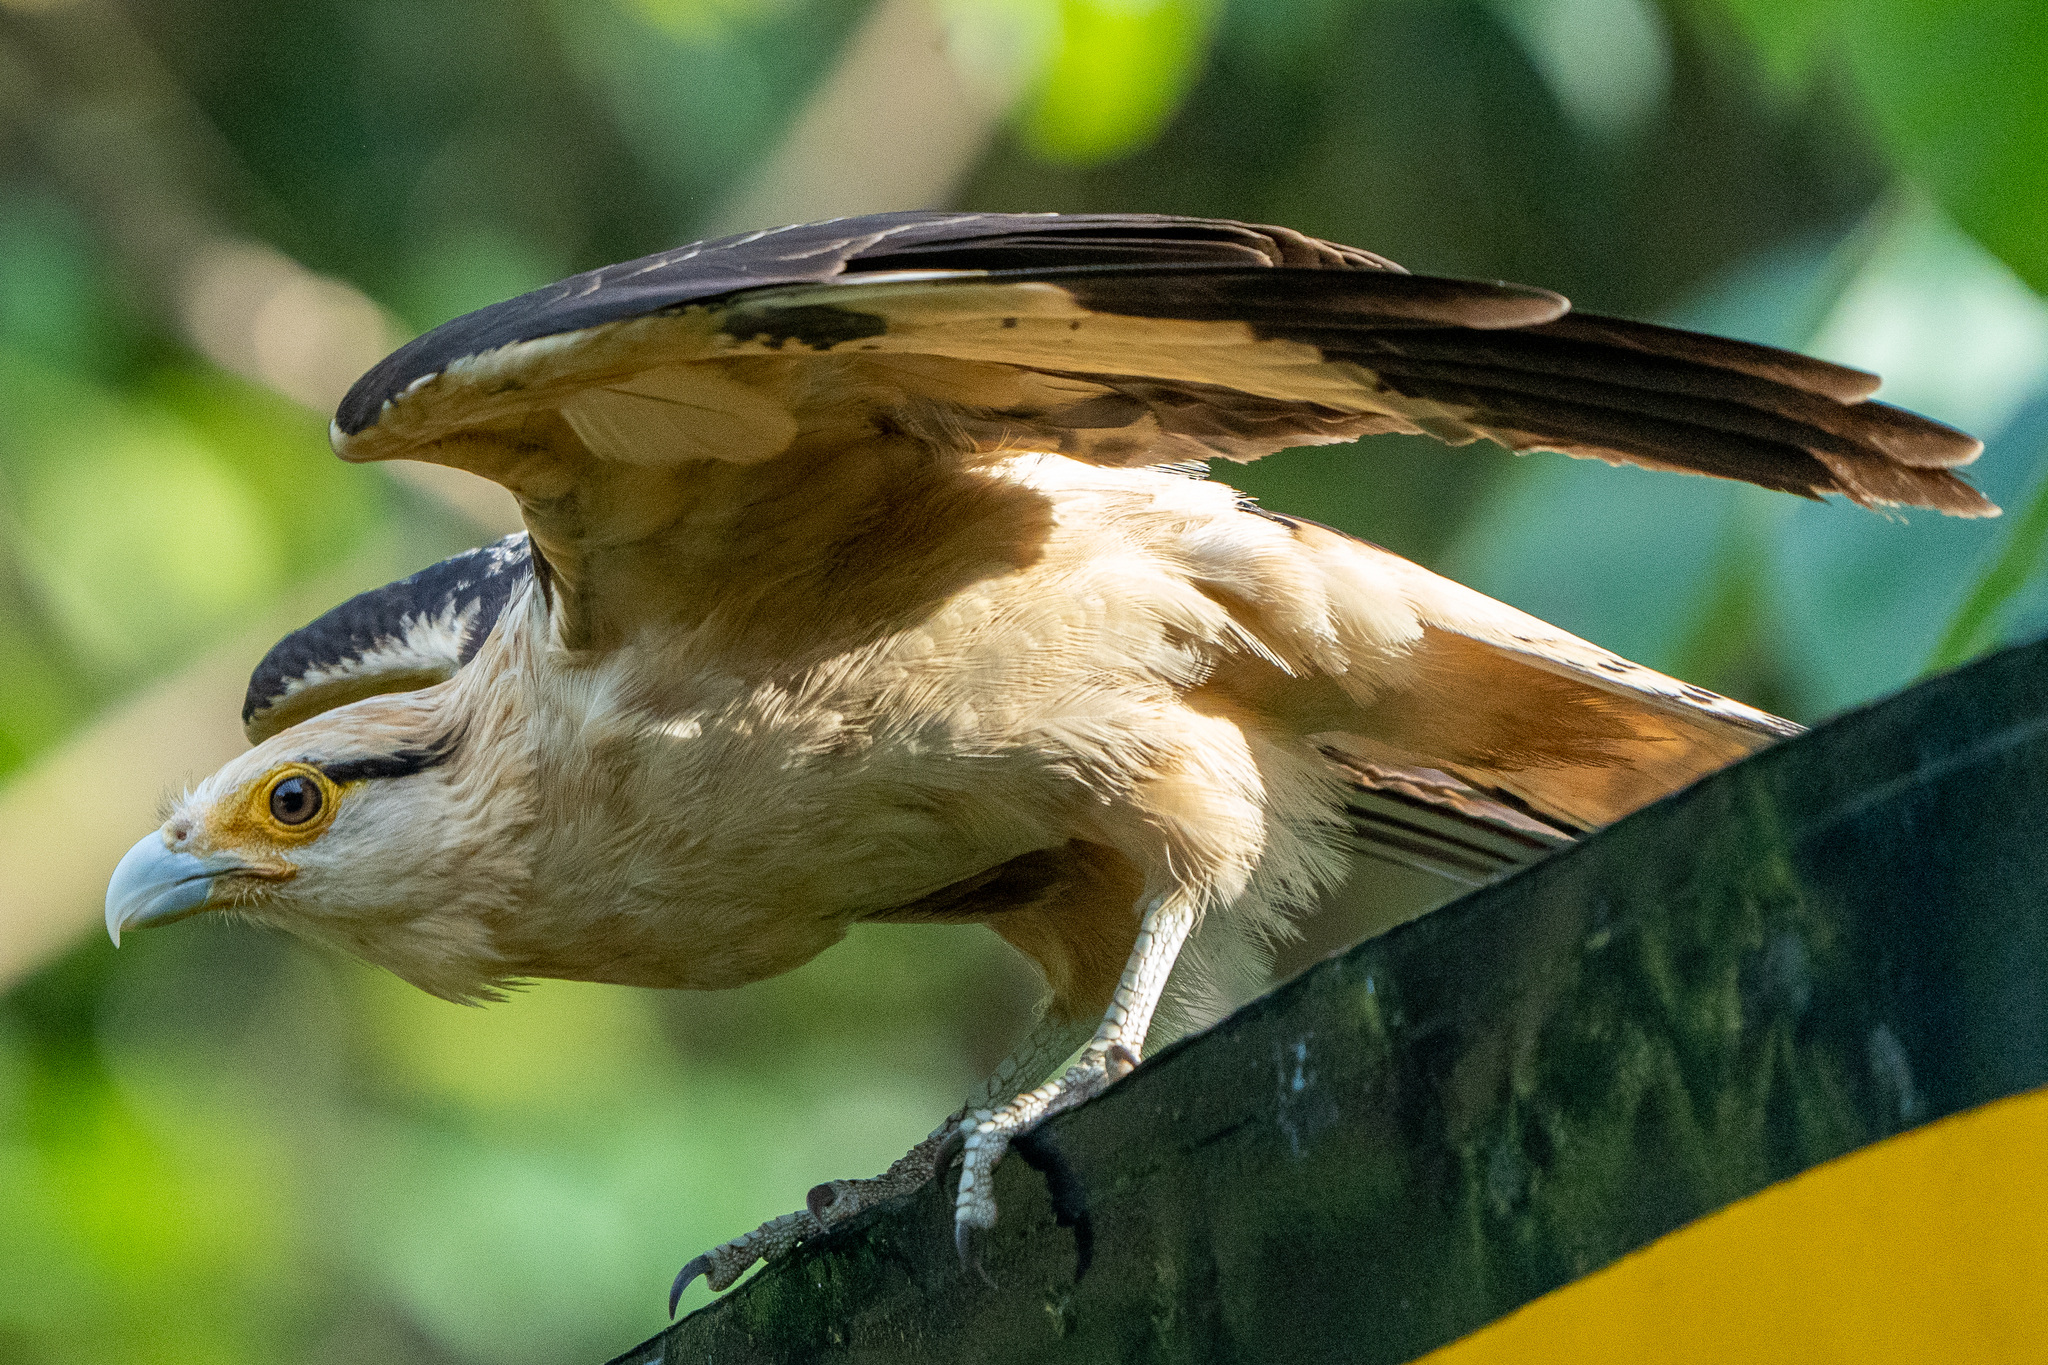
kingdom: Animalia
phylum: Chordata
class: Aves
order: Falconiformes
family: Falconidae
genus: Daptrius
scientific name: Daptrius
